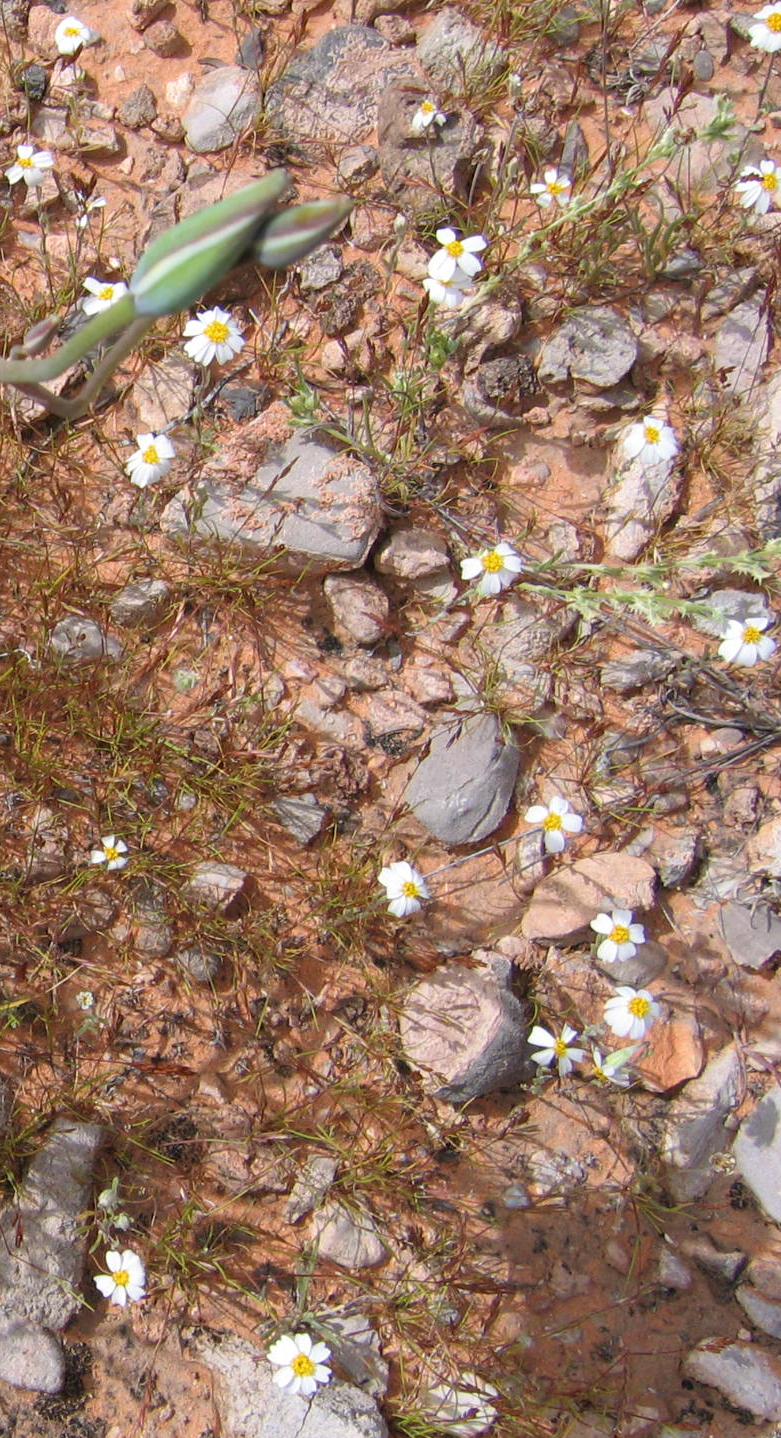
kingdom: Plantae
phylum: Tracheophyta
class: Magnoliopsida
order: Asterales
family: Asteraceae
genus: Eriophyllum
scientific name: Eriophyllum lanosum
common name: White easter-bonnets
